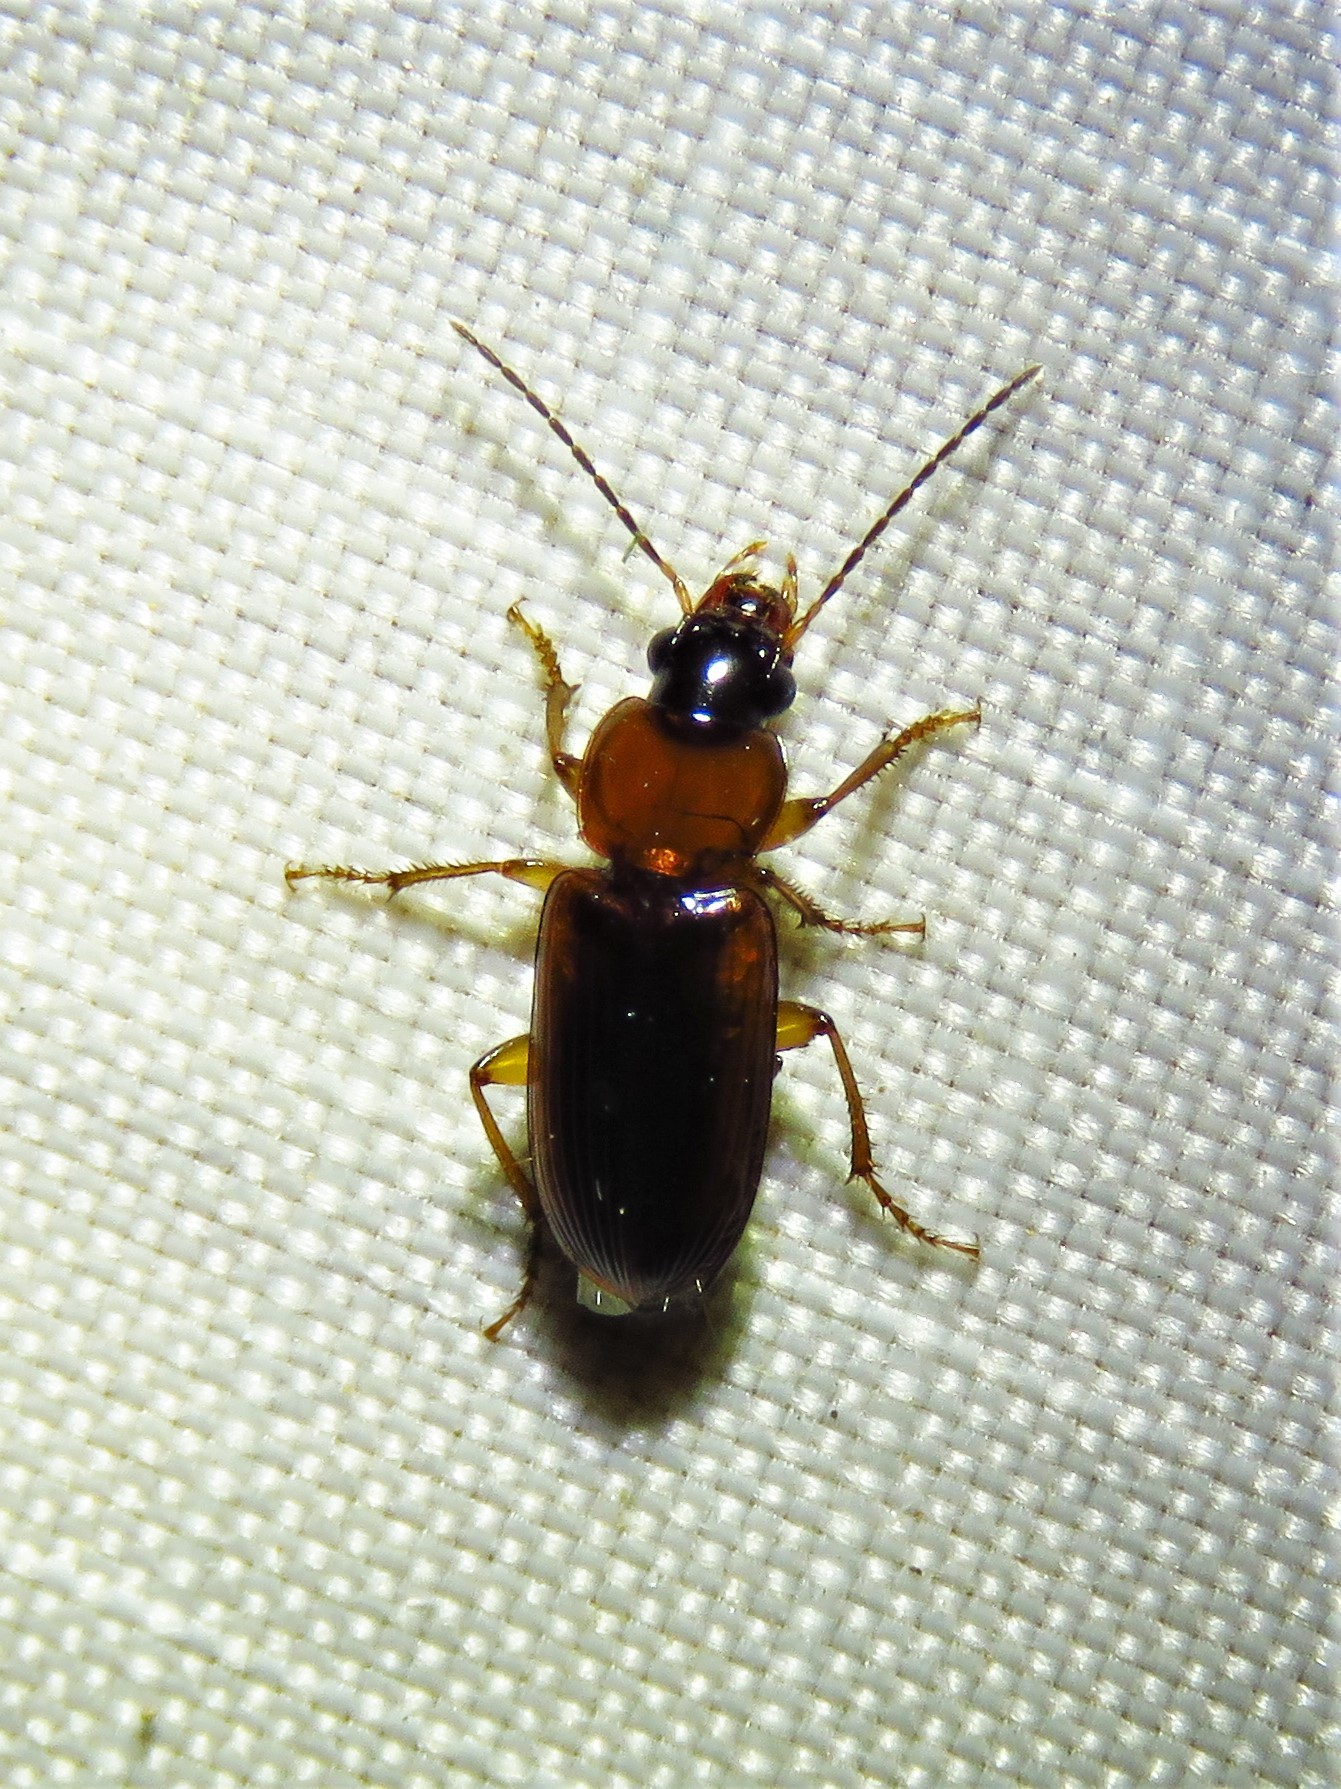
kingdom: Animalia
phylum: Arthropoda
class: Insecta
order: Coleoptera
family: Carabidae
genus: Stenolophus
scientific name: Stenolophus dissimilis
